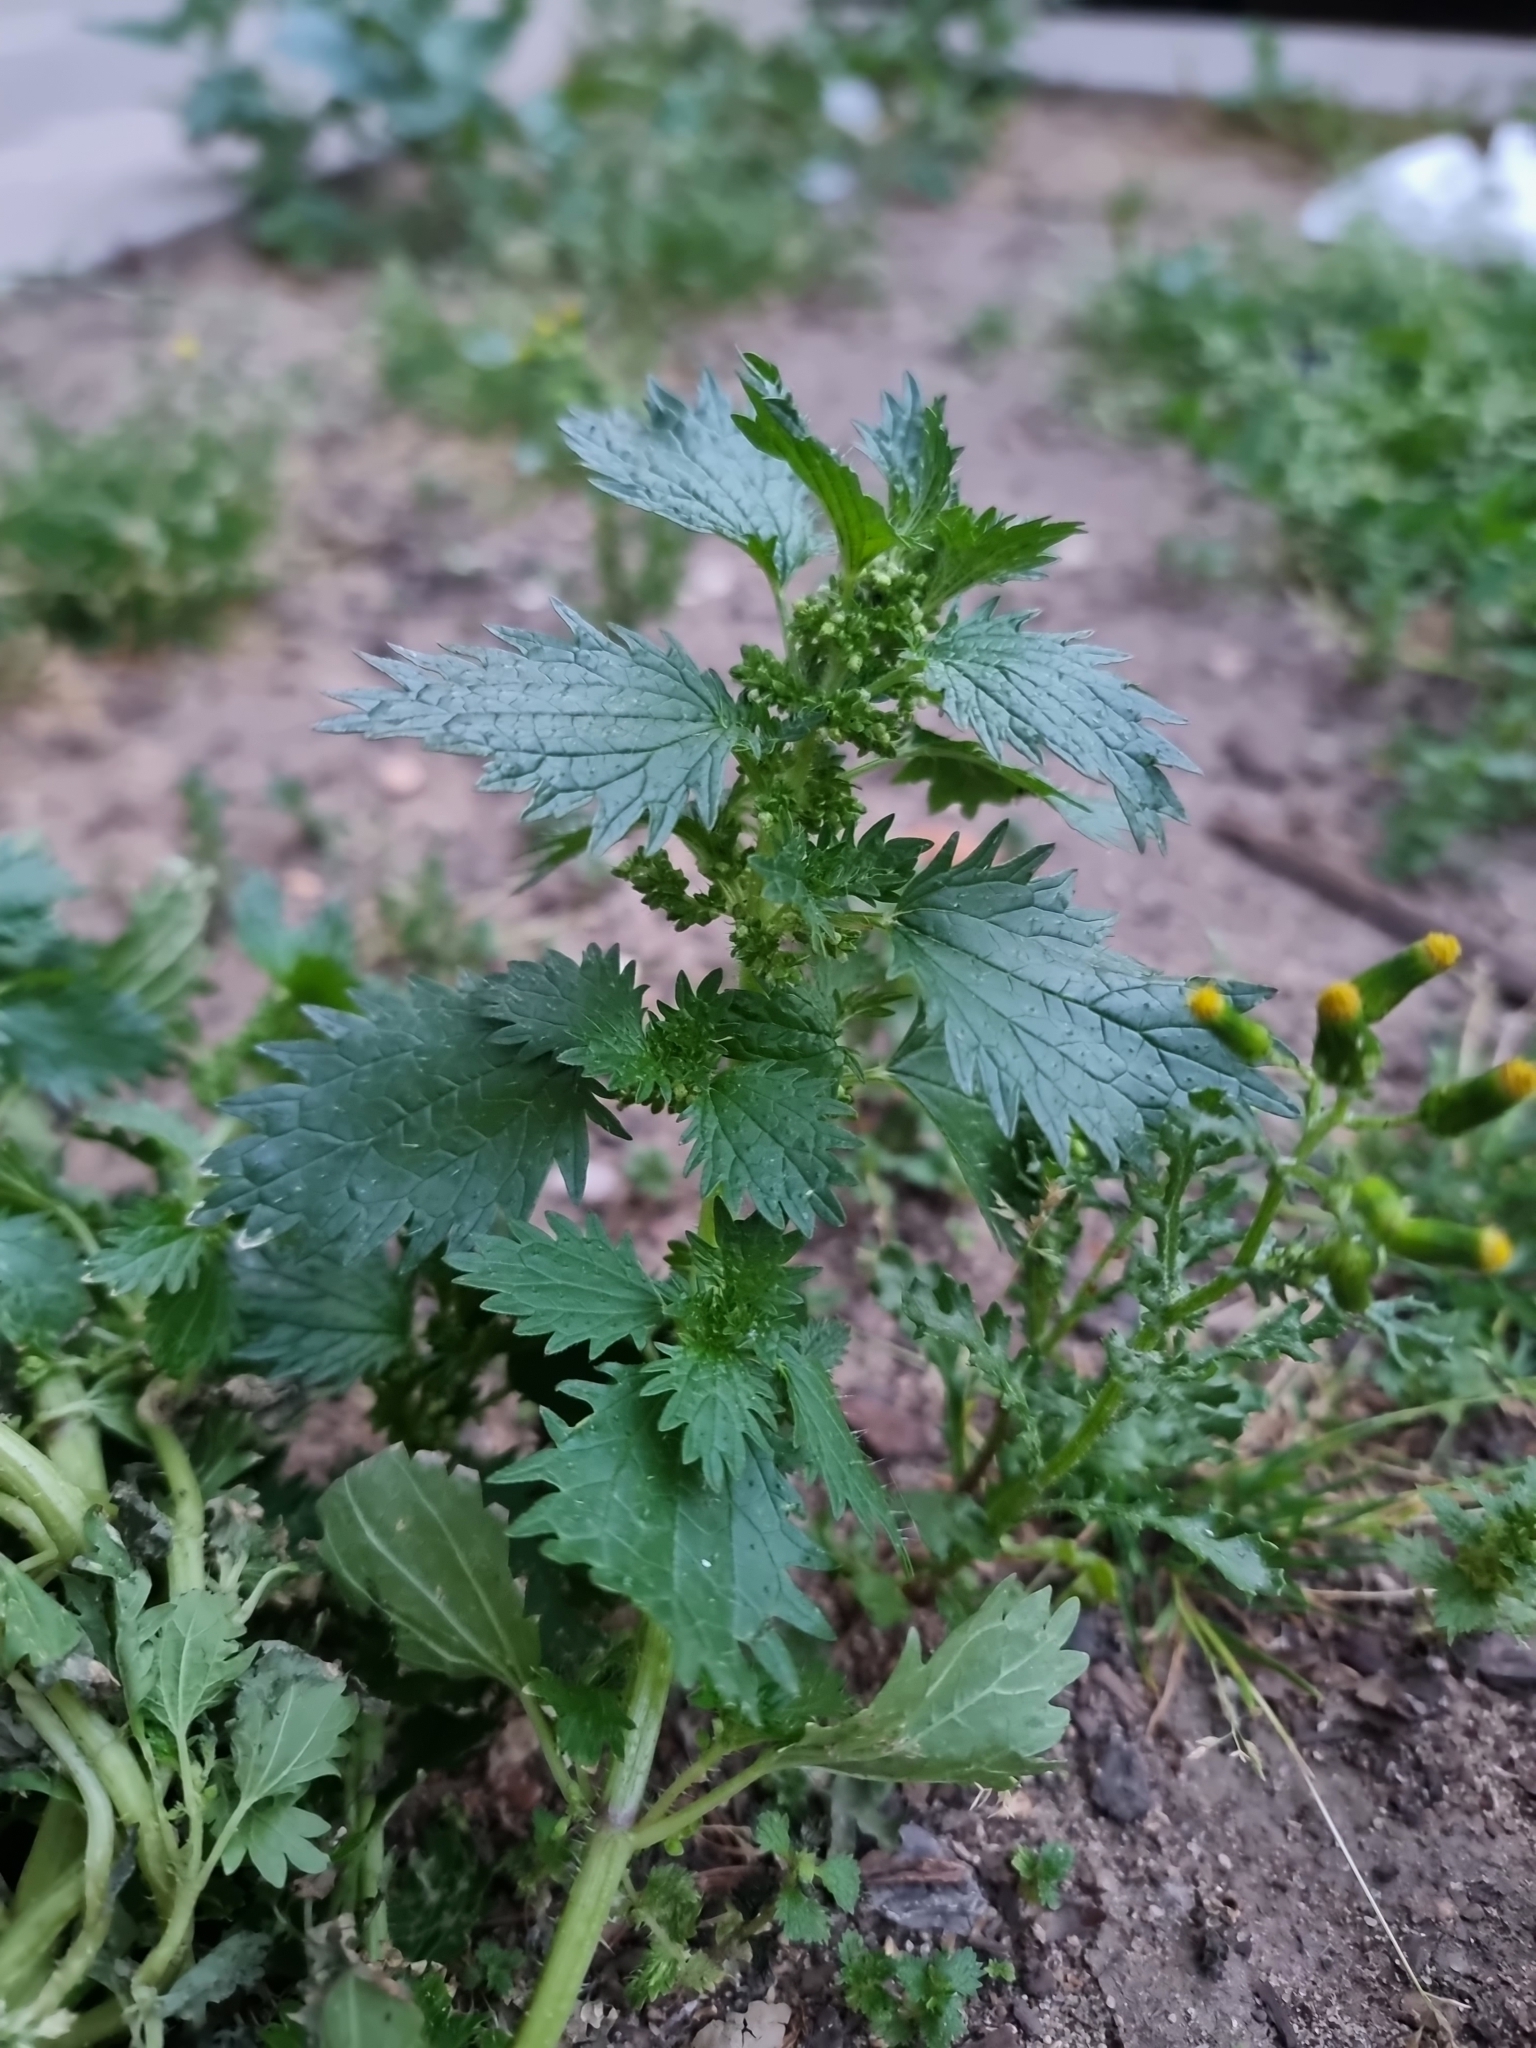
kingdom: Plantae
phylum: Tracheophyta
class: Magnoliopsida
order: Rosales
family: Urticaceae
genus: Urtica
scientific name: Urtica urens
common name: Dwarf nettle
